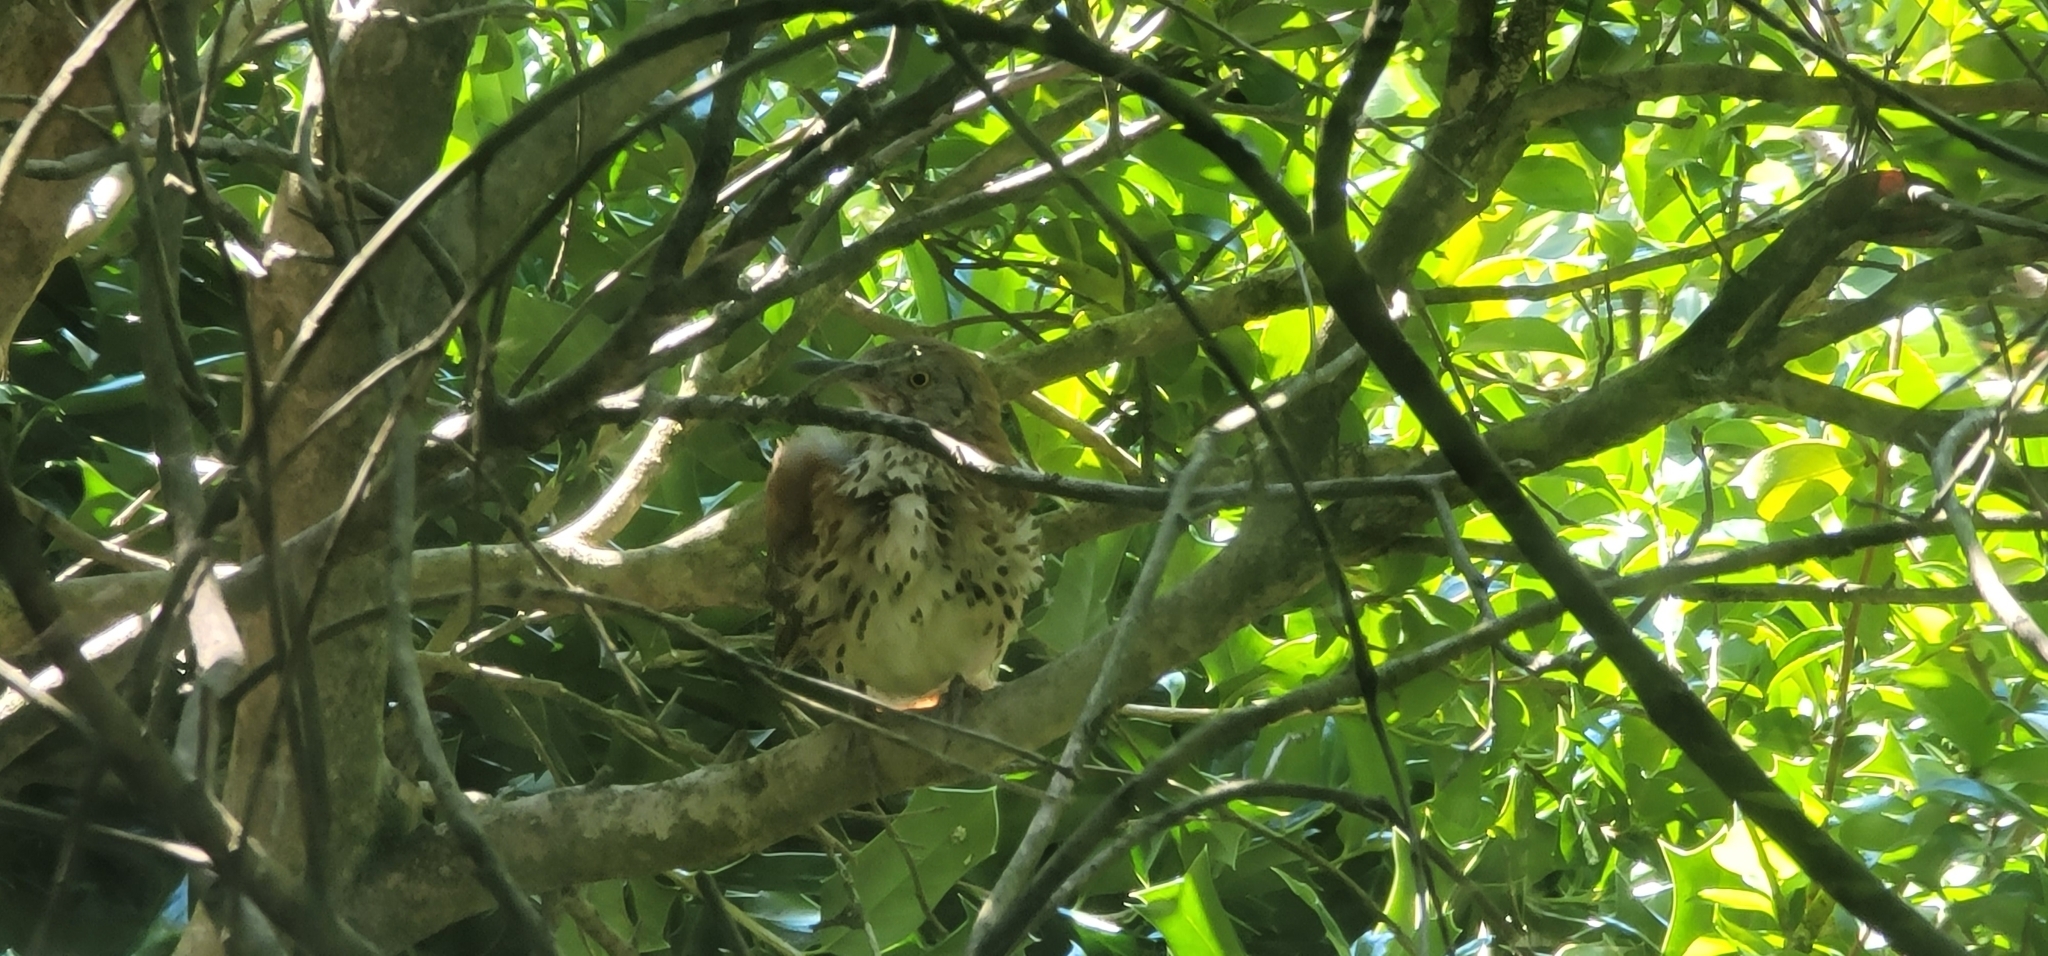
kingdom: Animalia
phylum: Chordata
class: Aves
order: Passeriformes
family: Mimidae
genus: Toxostoma
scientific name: Toxostoma rufum
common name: Brown thrasher
